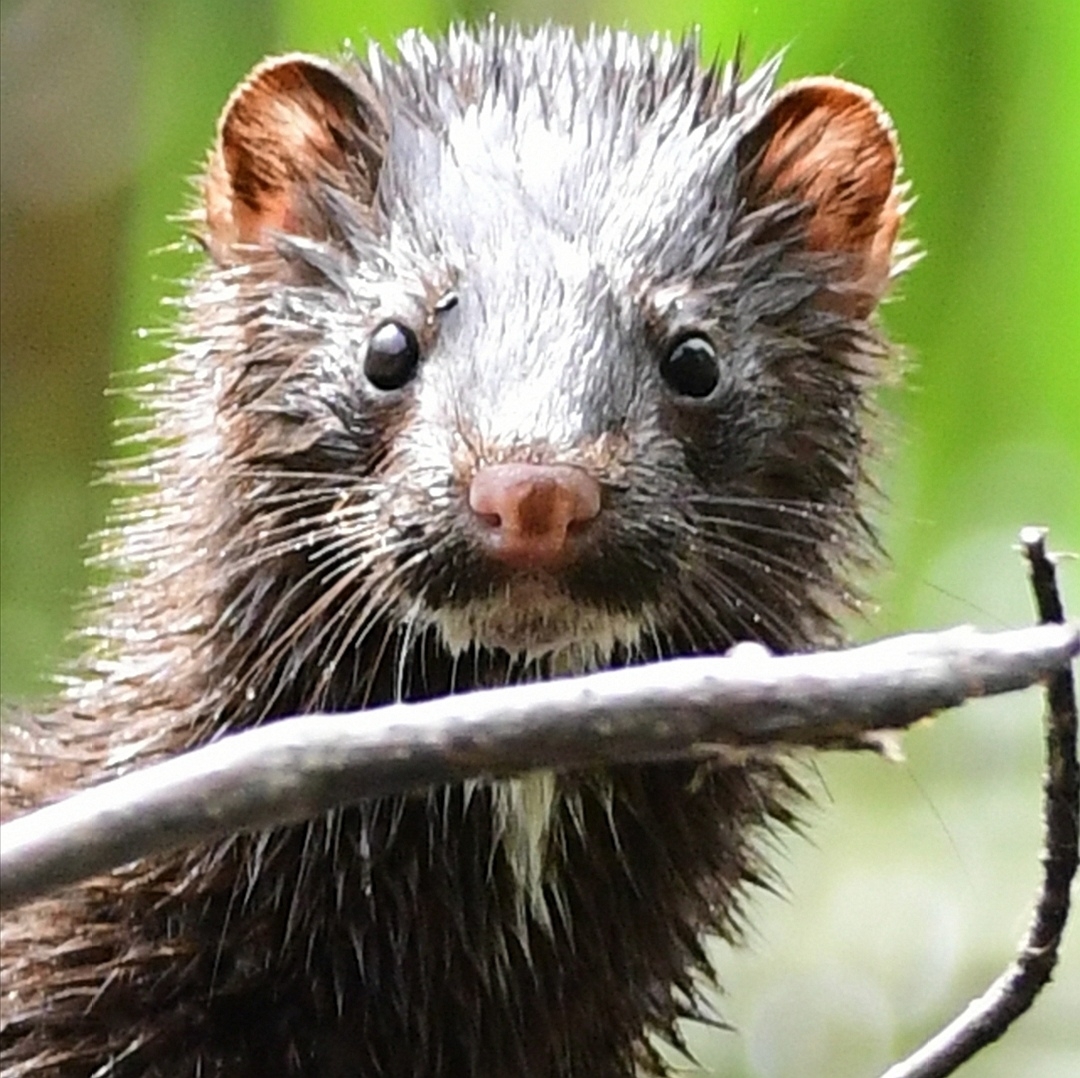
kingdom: Animalia
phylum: Chordata
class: Mammalia
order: Carnivora
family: Mustelidae
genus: Mustela
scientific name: Mustela
